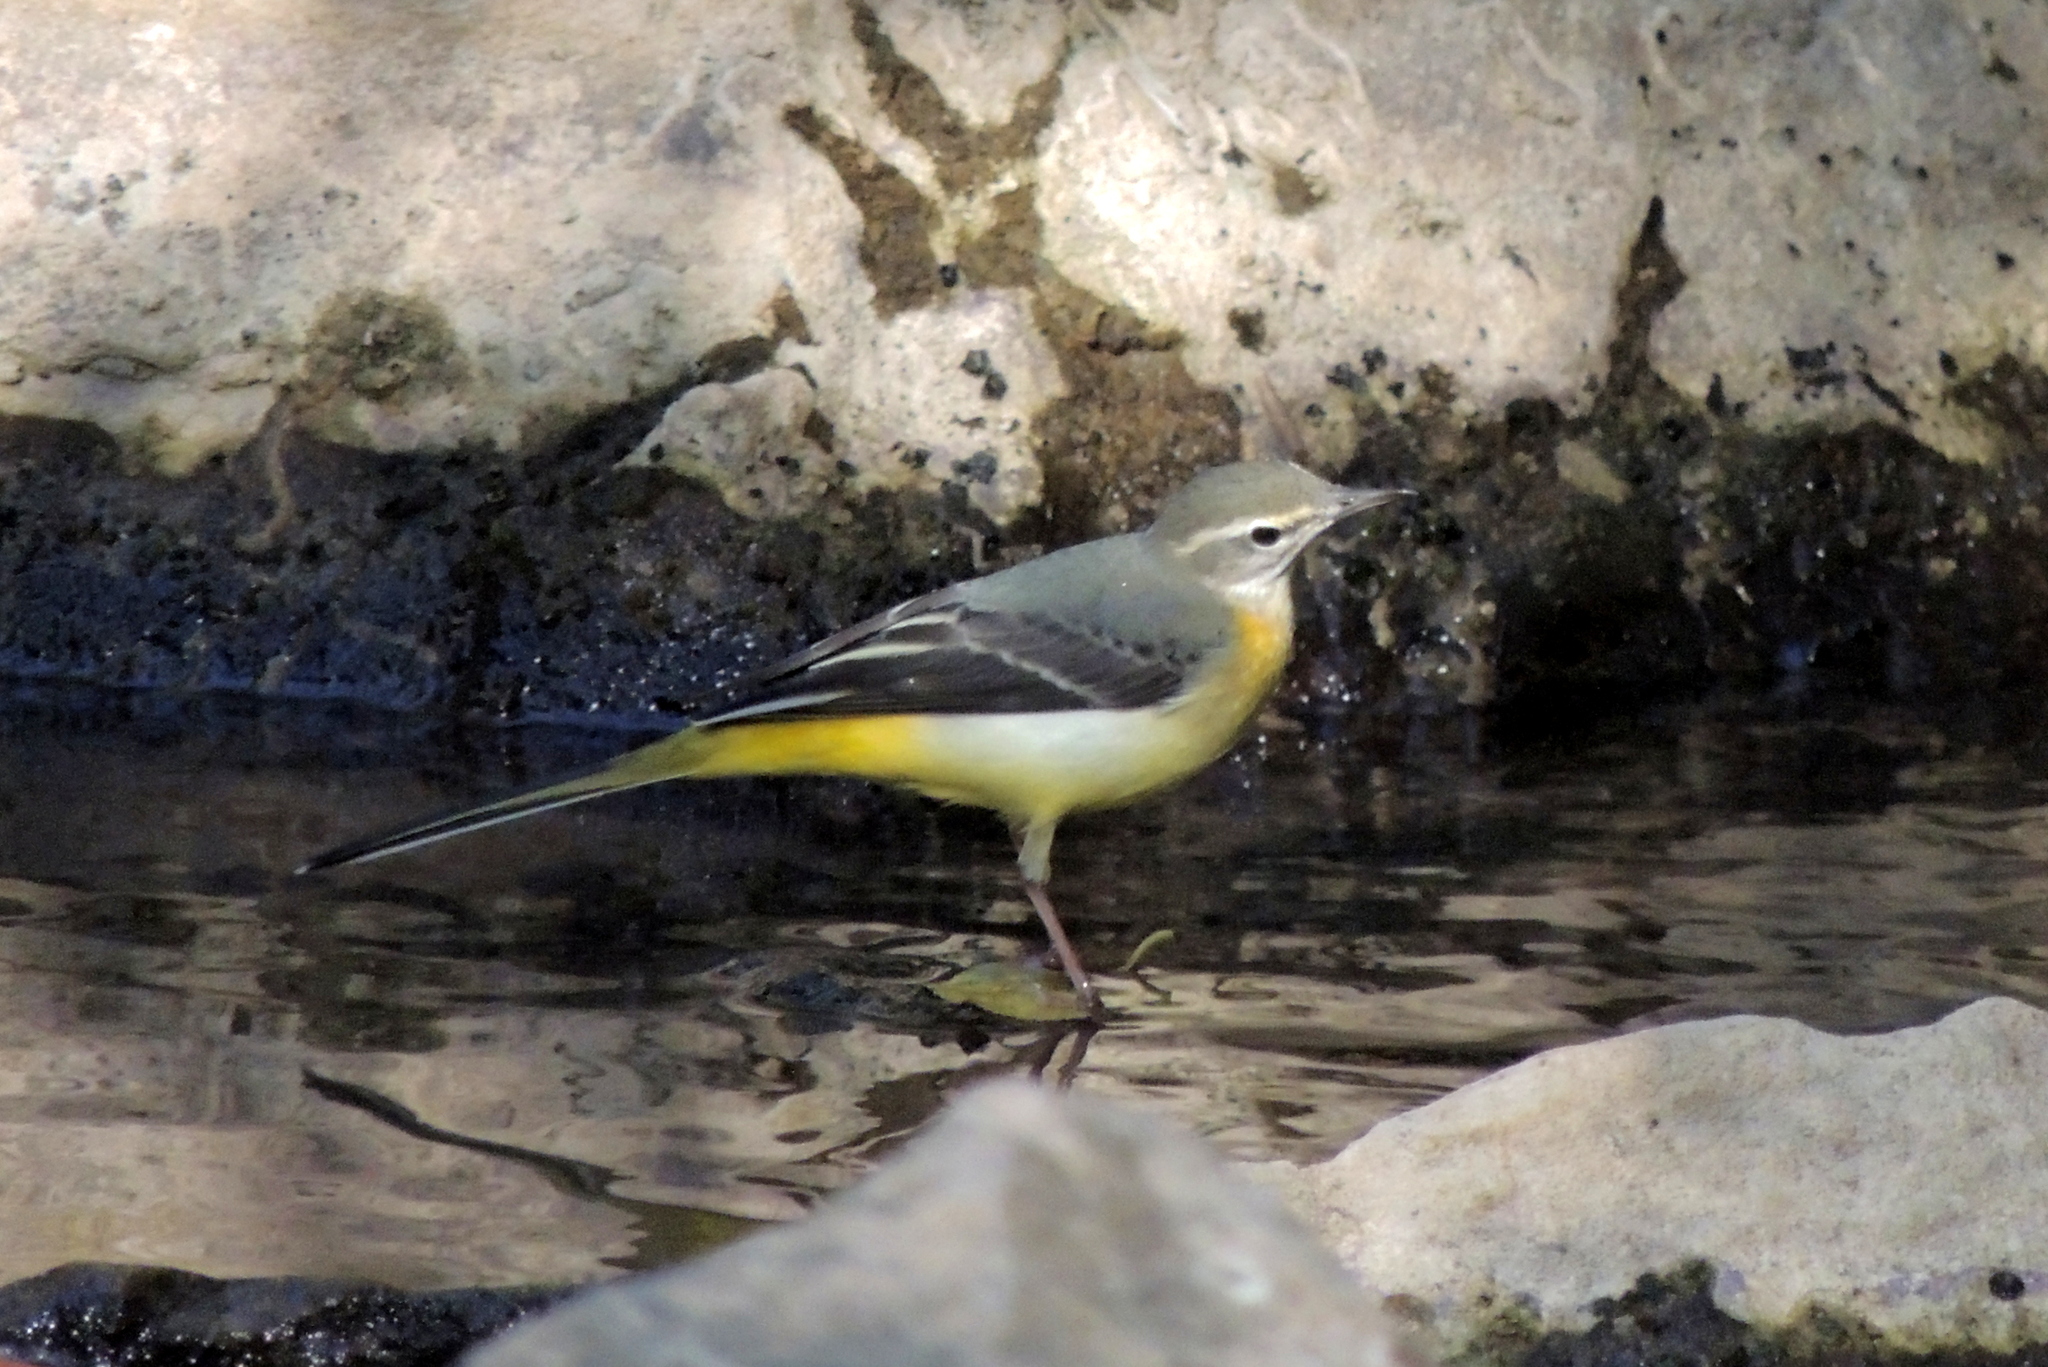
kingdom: Animalia
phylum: Chordata
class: Aves
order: Passeriformes
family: Motacillidae
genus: Motacilla
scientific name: Motacilla cinerea
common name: Grey wagtail
